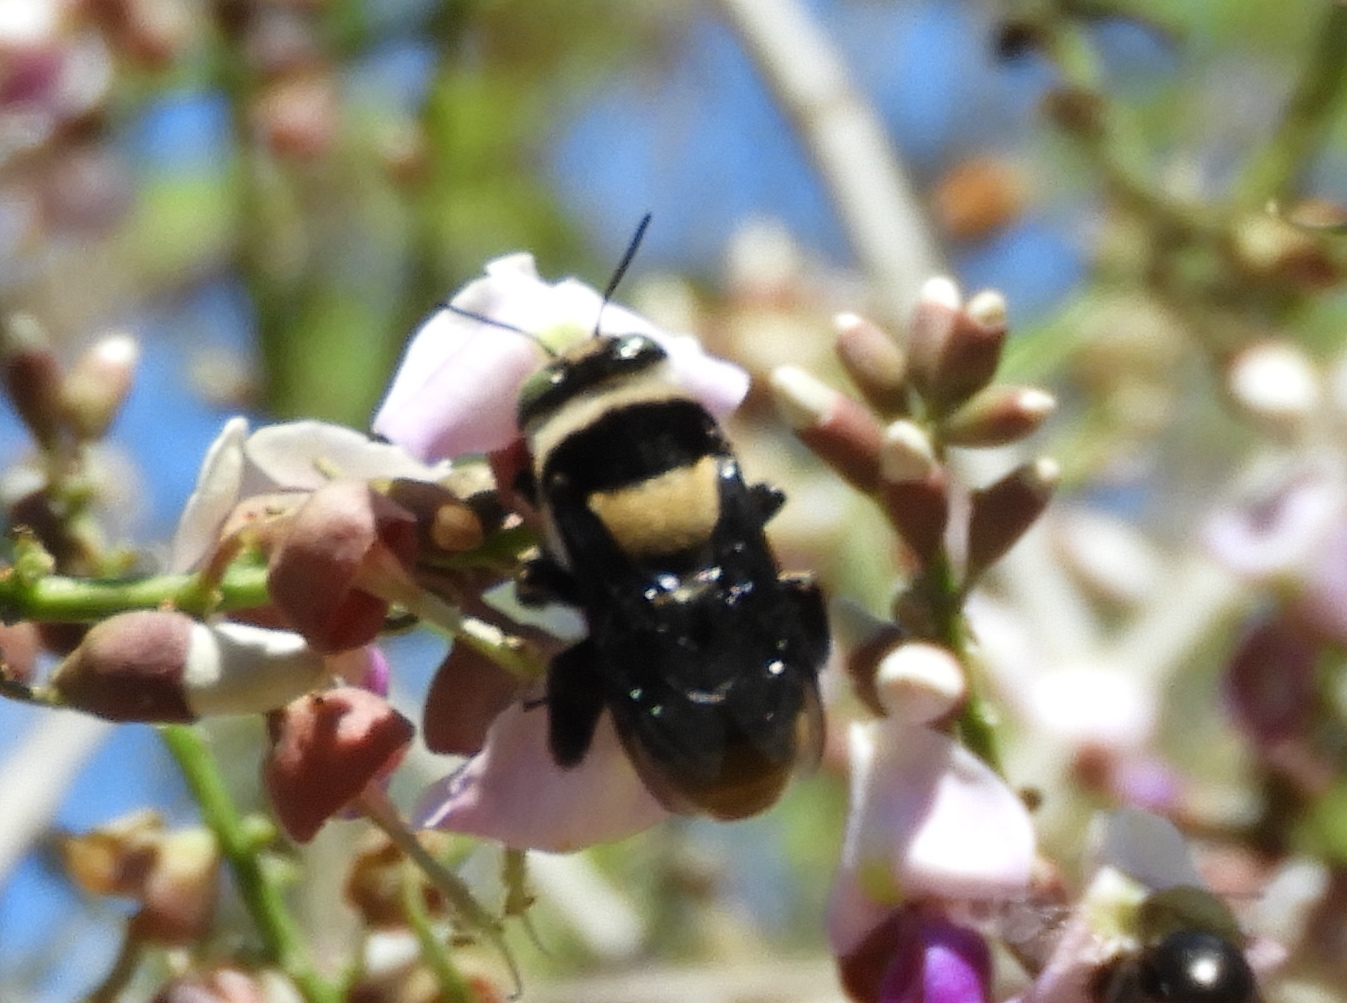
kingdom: Animalia
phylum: Arthropoda
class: Insecta
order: Hymenoptera
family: Apidae
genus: Centris
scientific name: Centris flavofasciata
